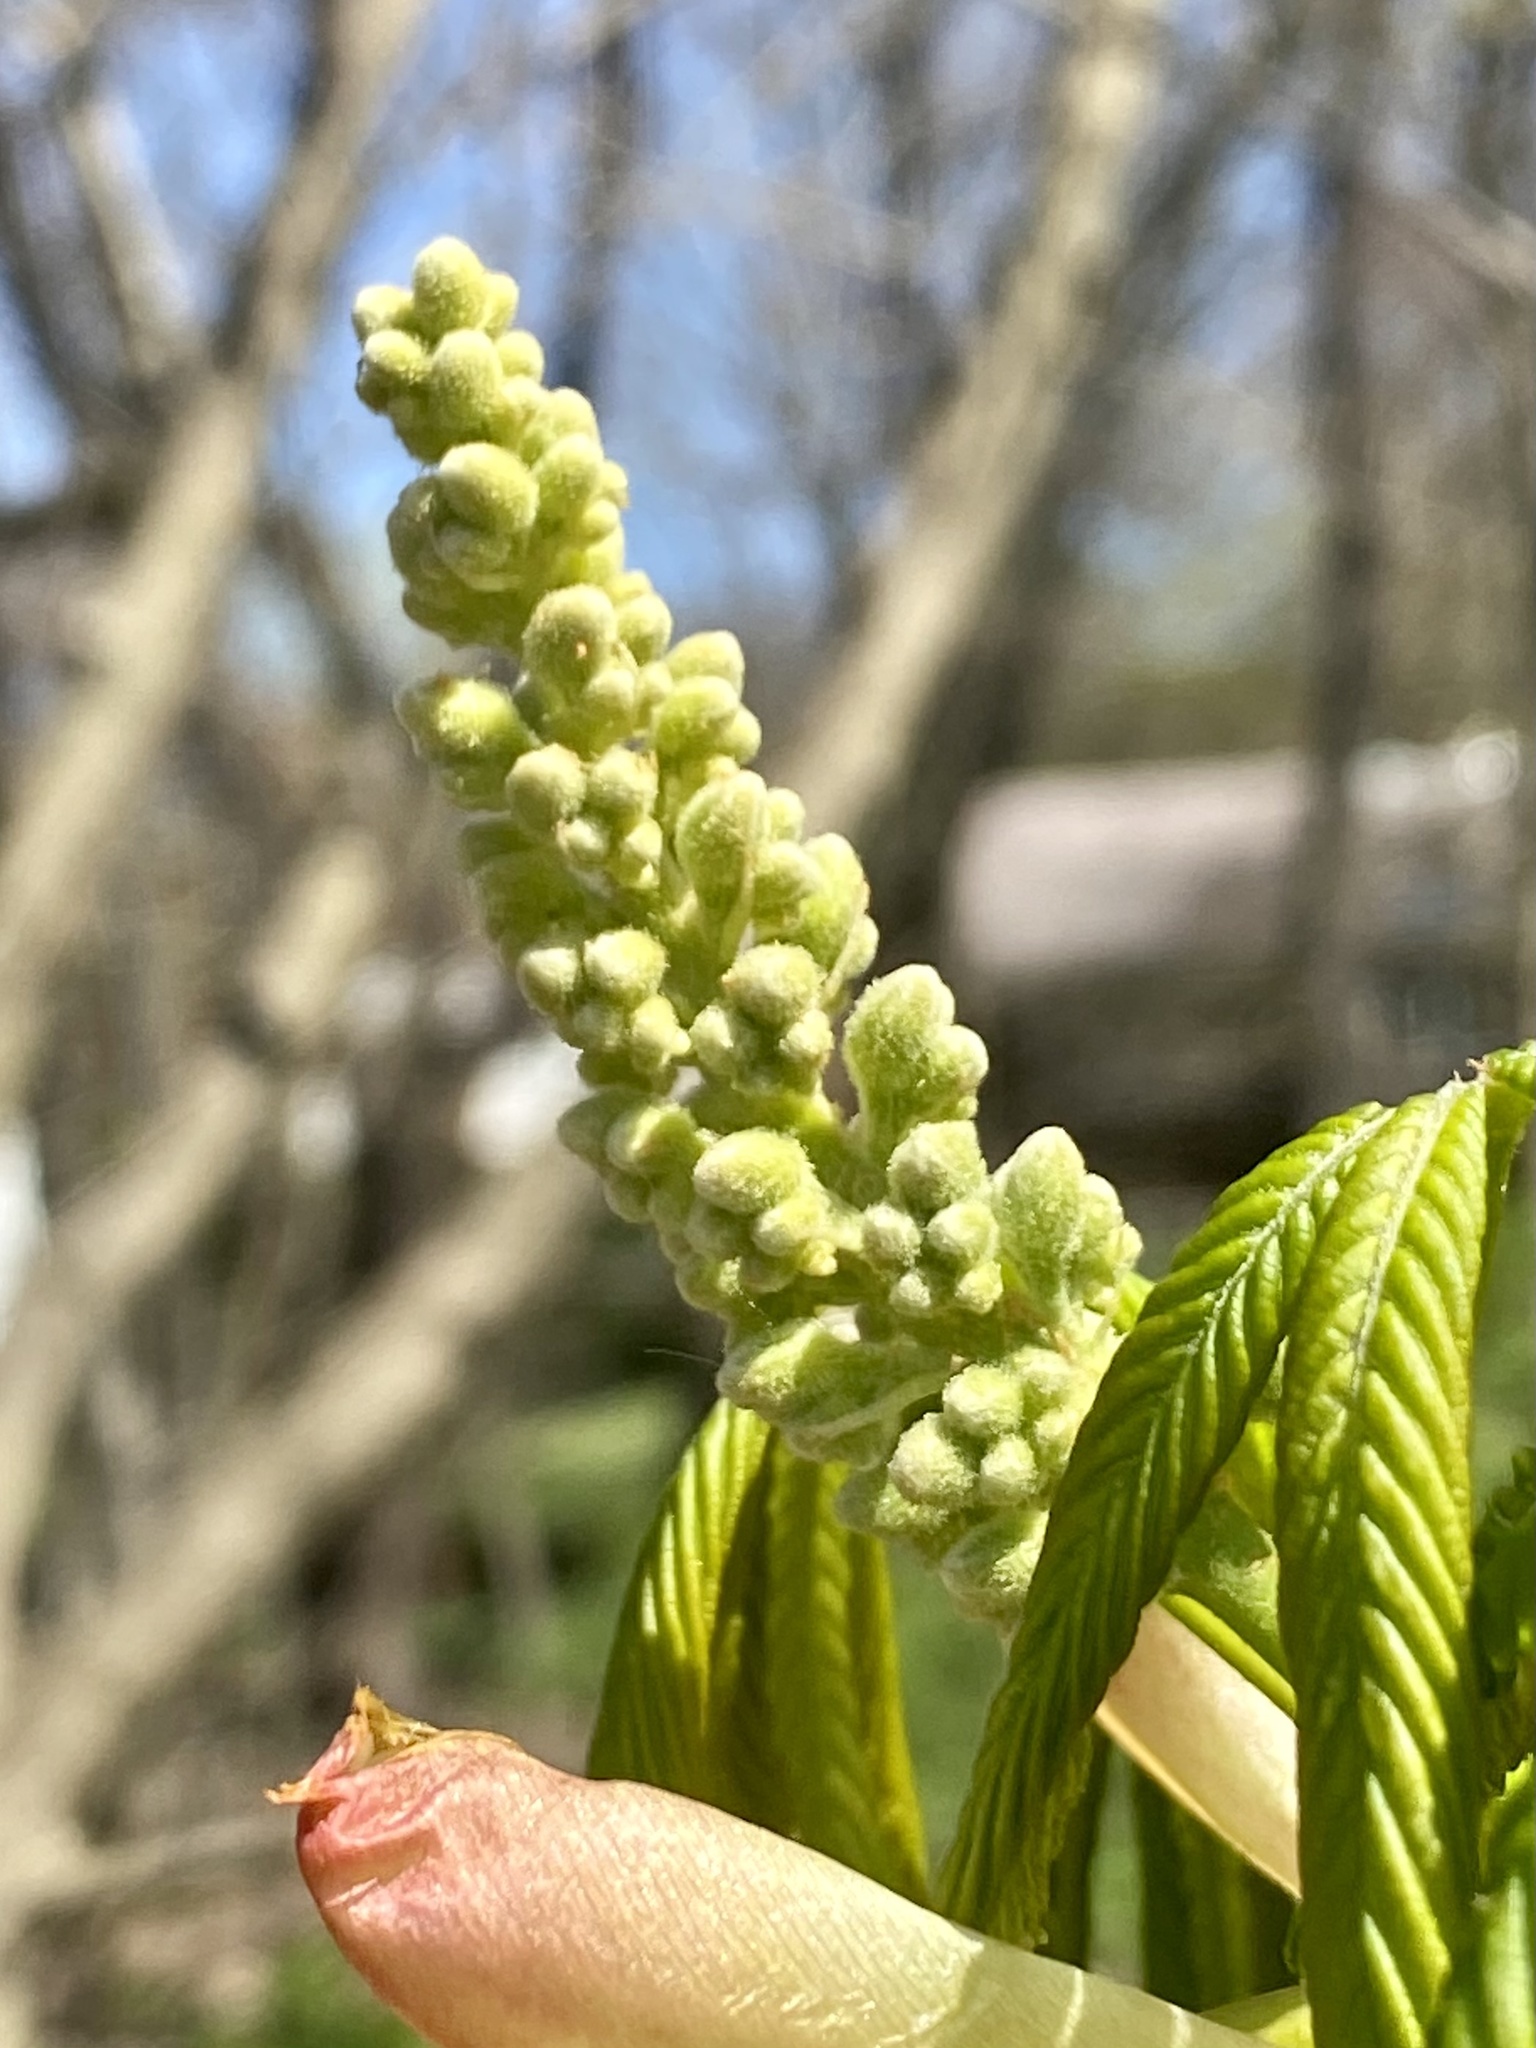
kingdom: Plantae
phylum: Tracheophyta
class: Magnoliopsida
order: Sapindales
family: Sapindaceae
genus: Aesculus
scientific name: Aesculus flava
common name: Yellow buckeye
